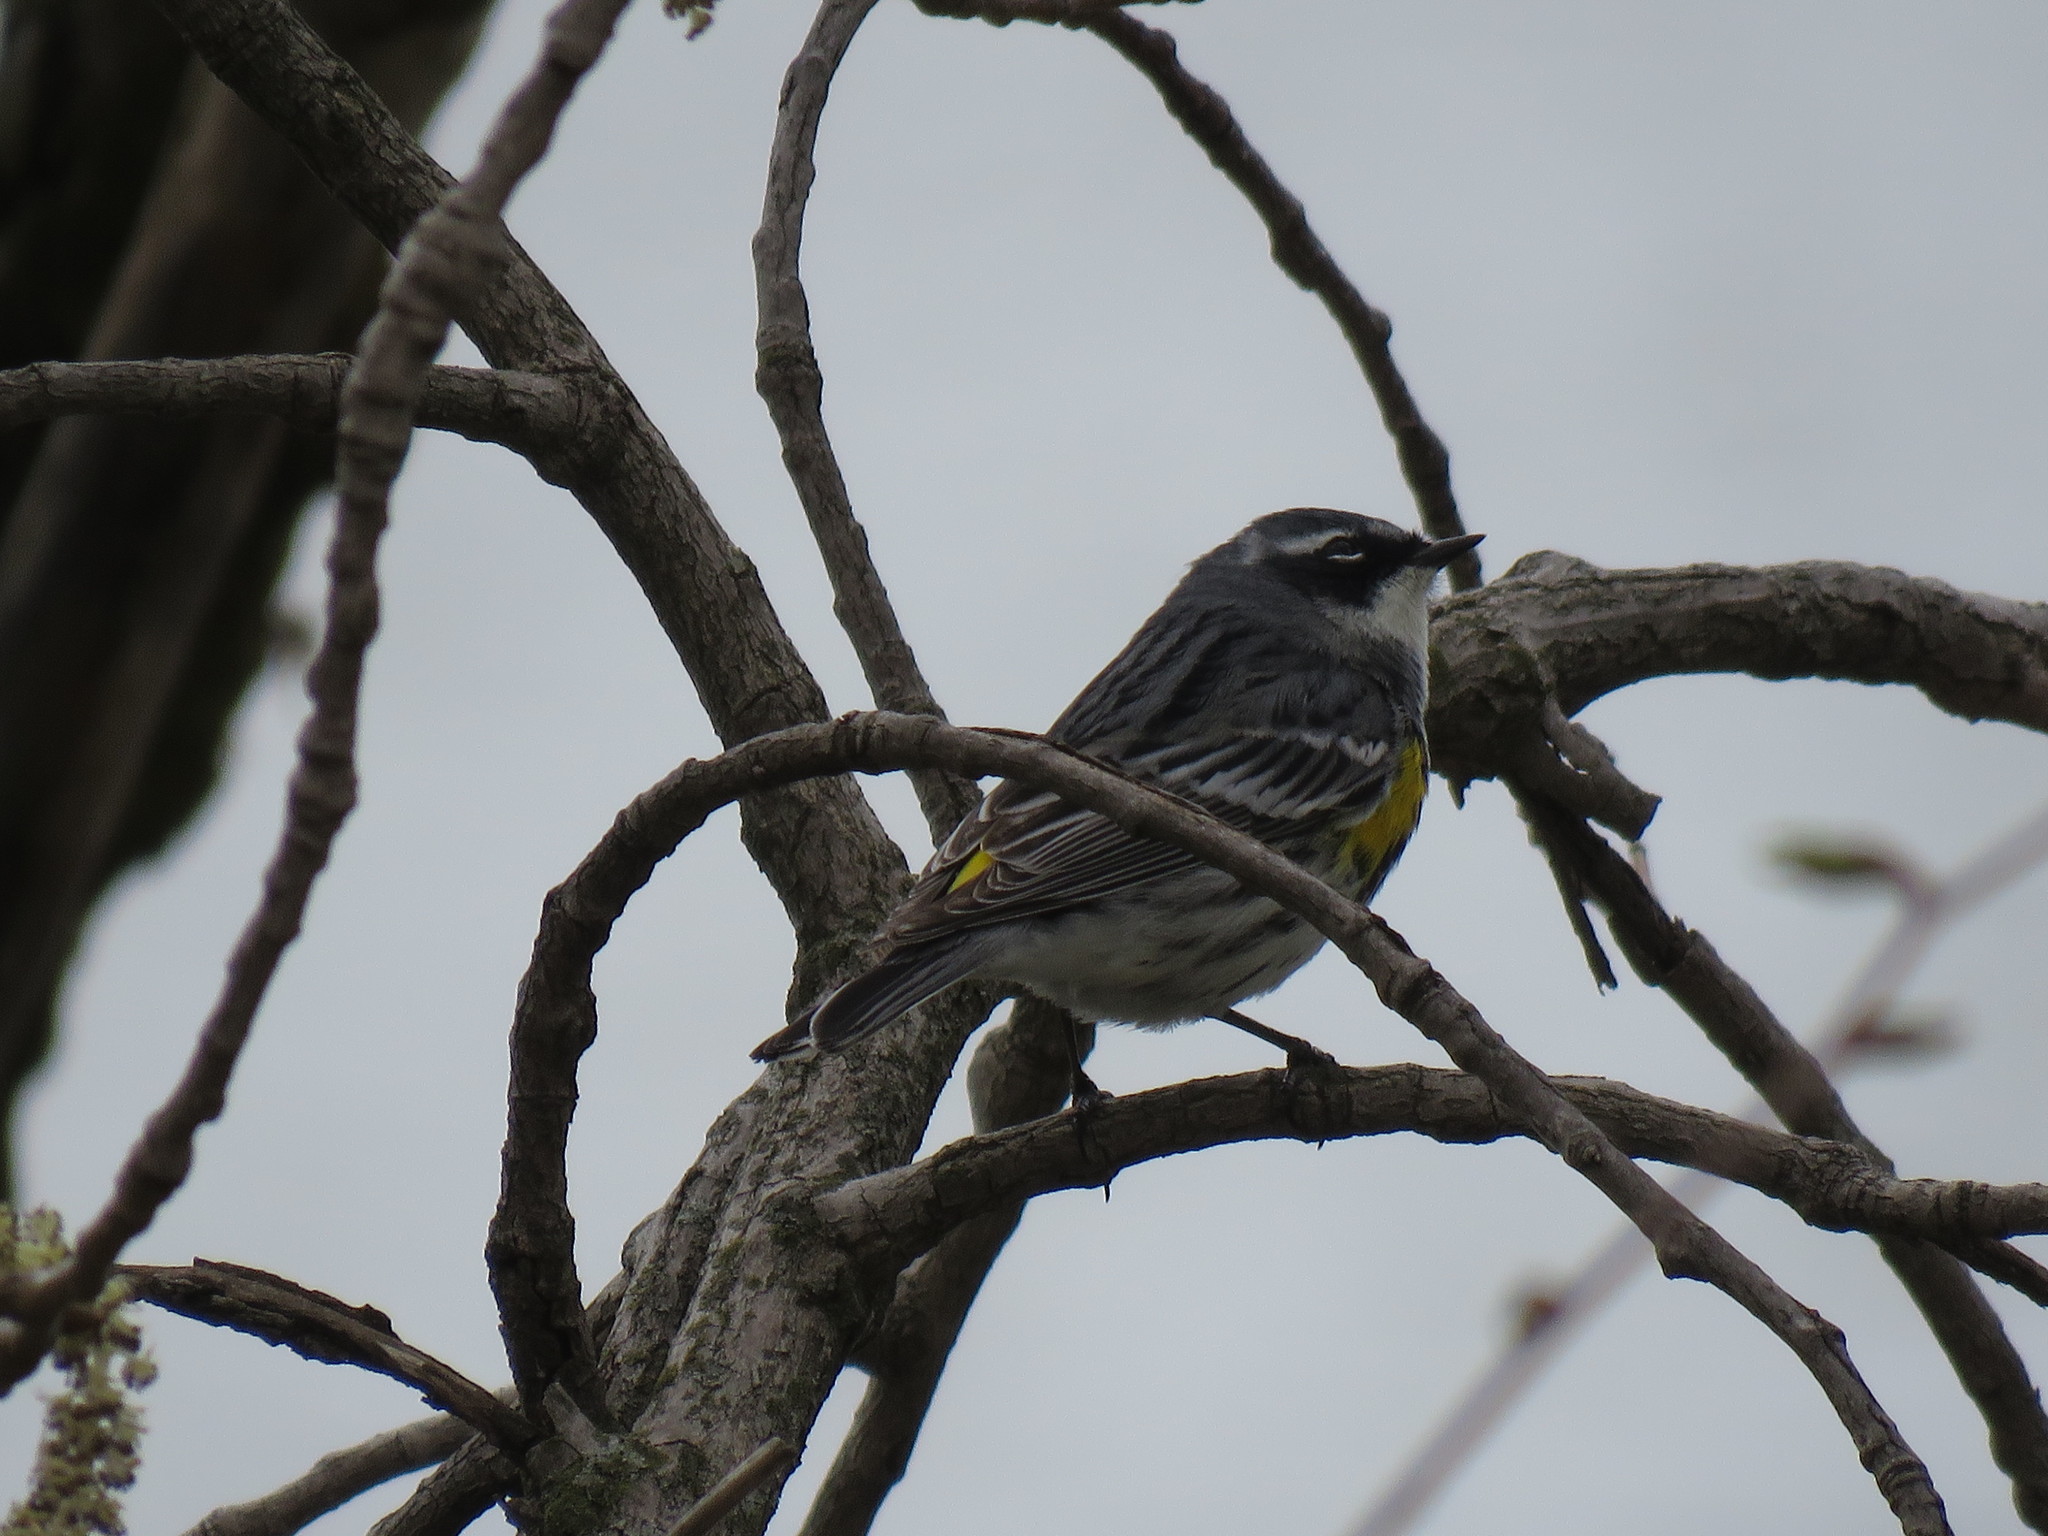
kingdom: Animalia
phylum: Chordata
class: Aves
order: Passeriformes
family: Parulidae
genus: Setophaga
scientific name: Setophaga coronata
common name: Myrtle warbler
